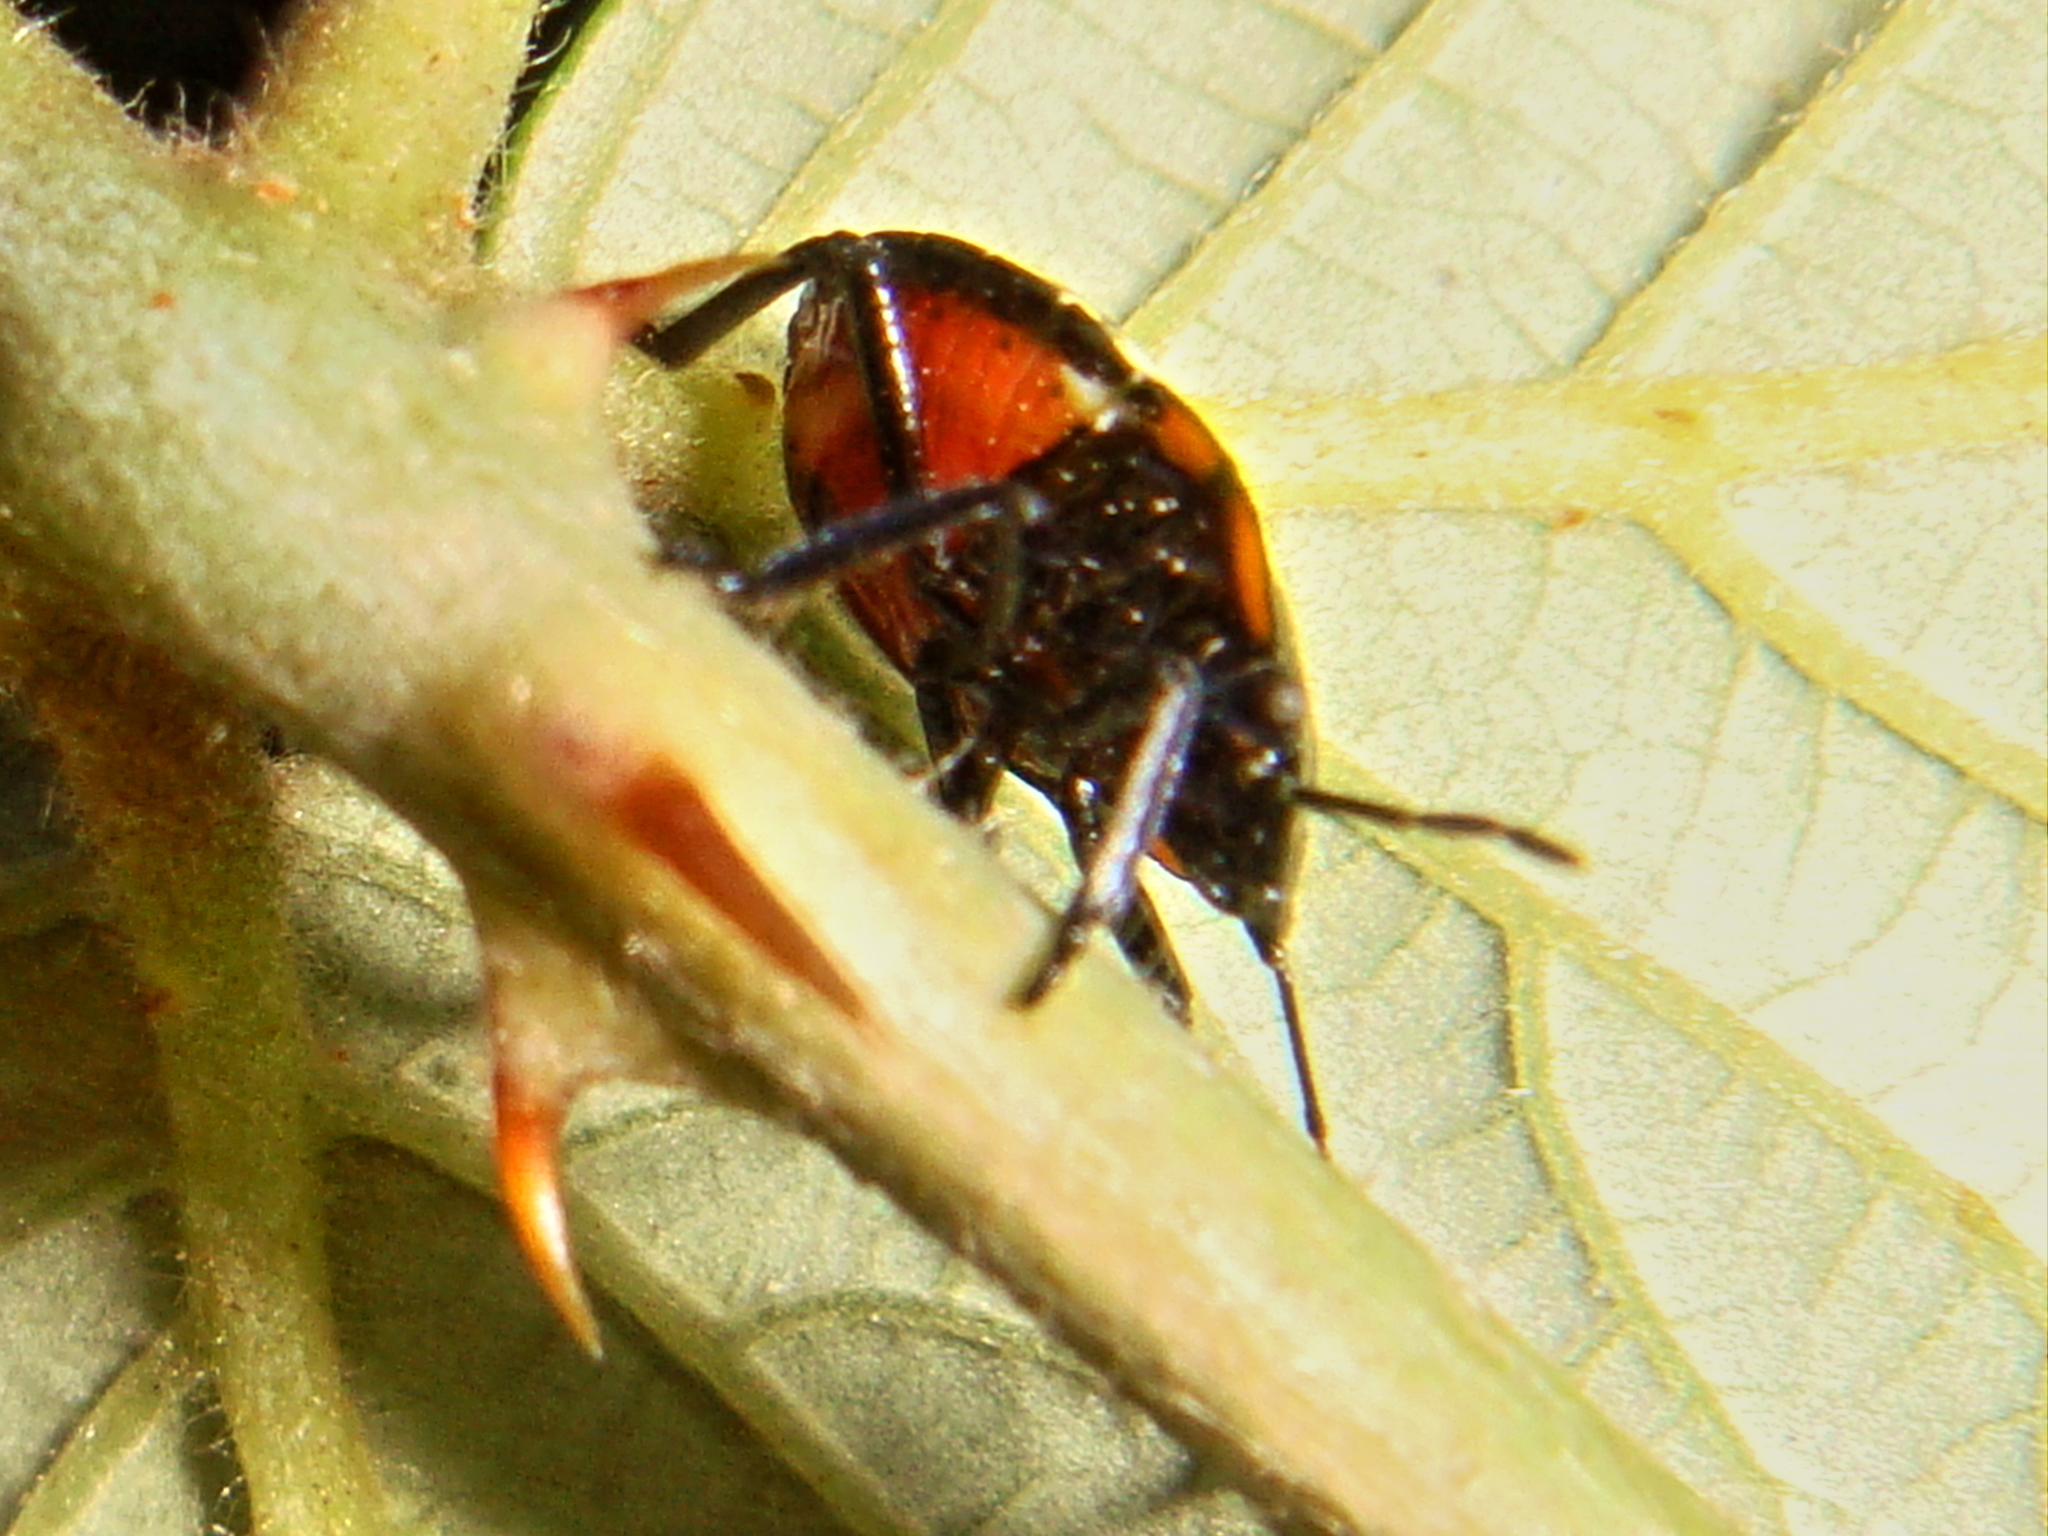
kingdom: Animalia
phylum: Arthropoda
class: Insecta
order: Hemiptera
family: Pentatomidae
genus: Nezara
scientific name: Nezara viridula
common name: Southern green stink bug
